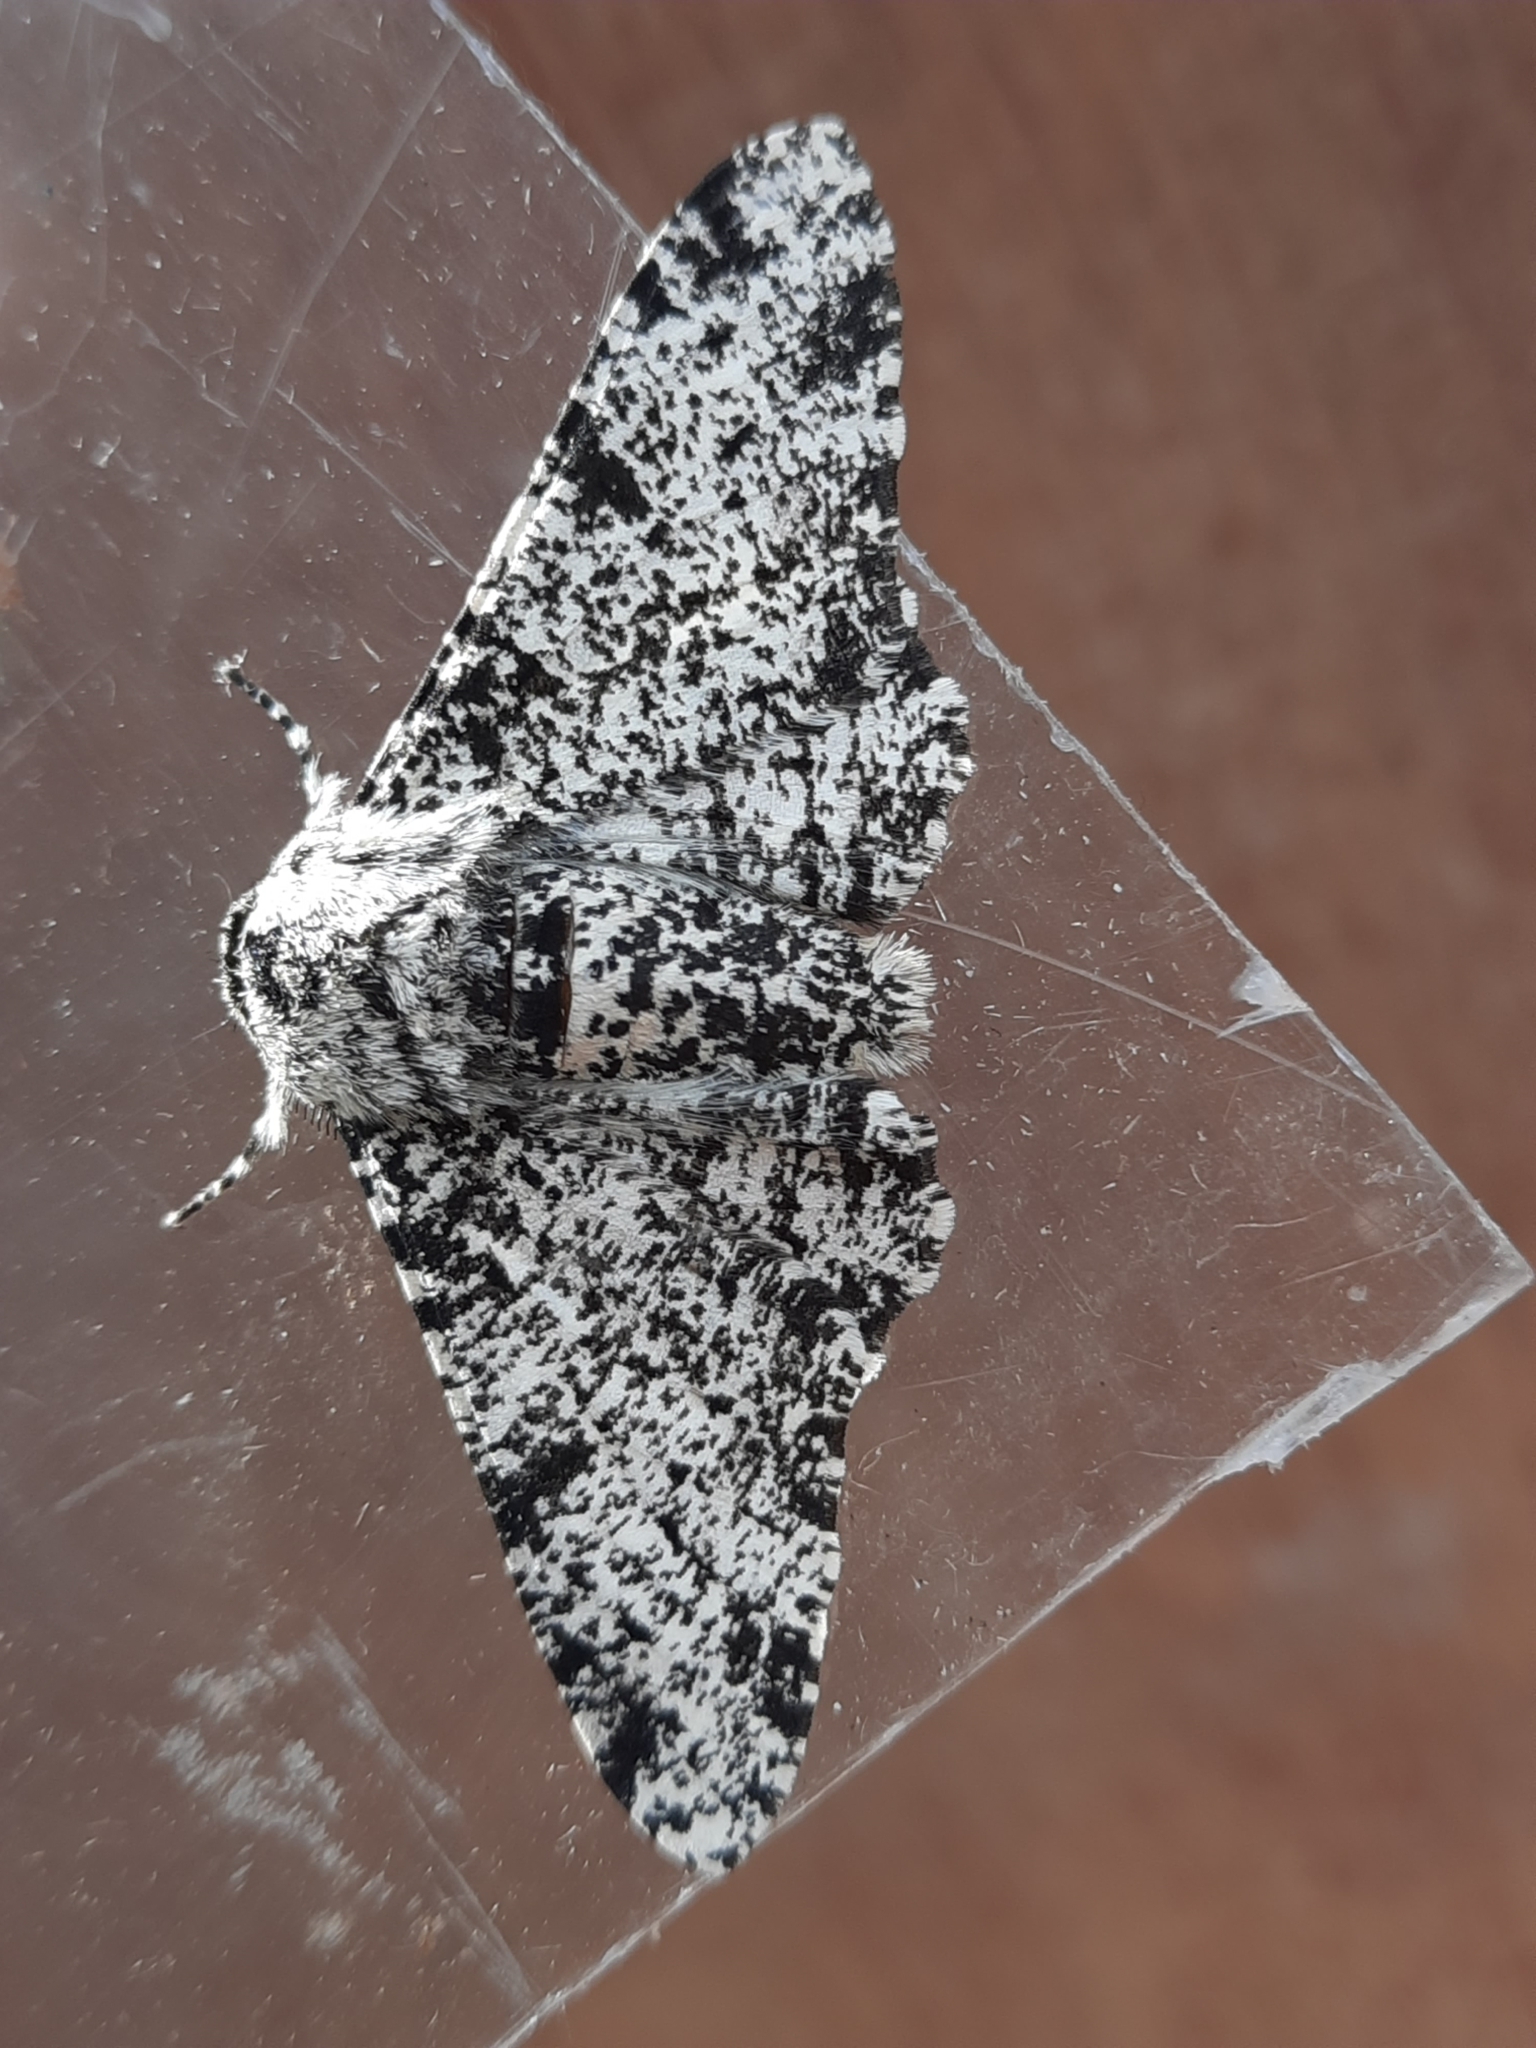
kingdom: Animalia
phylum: Arthropoda
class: Insecta
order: Lepidoptera
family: Geometridae
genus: Biston
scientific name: Biston betularia
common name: Peppered moth
